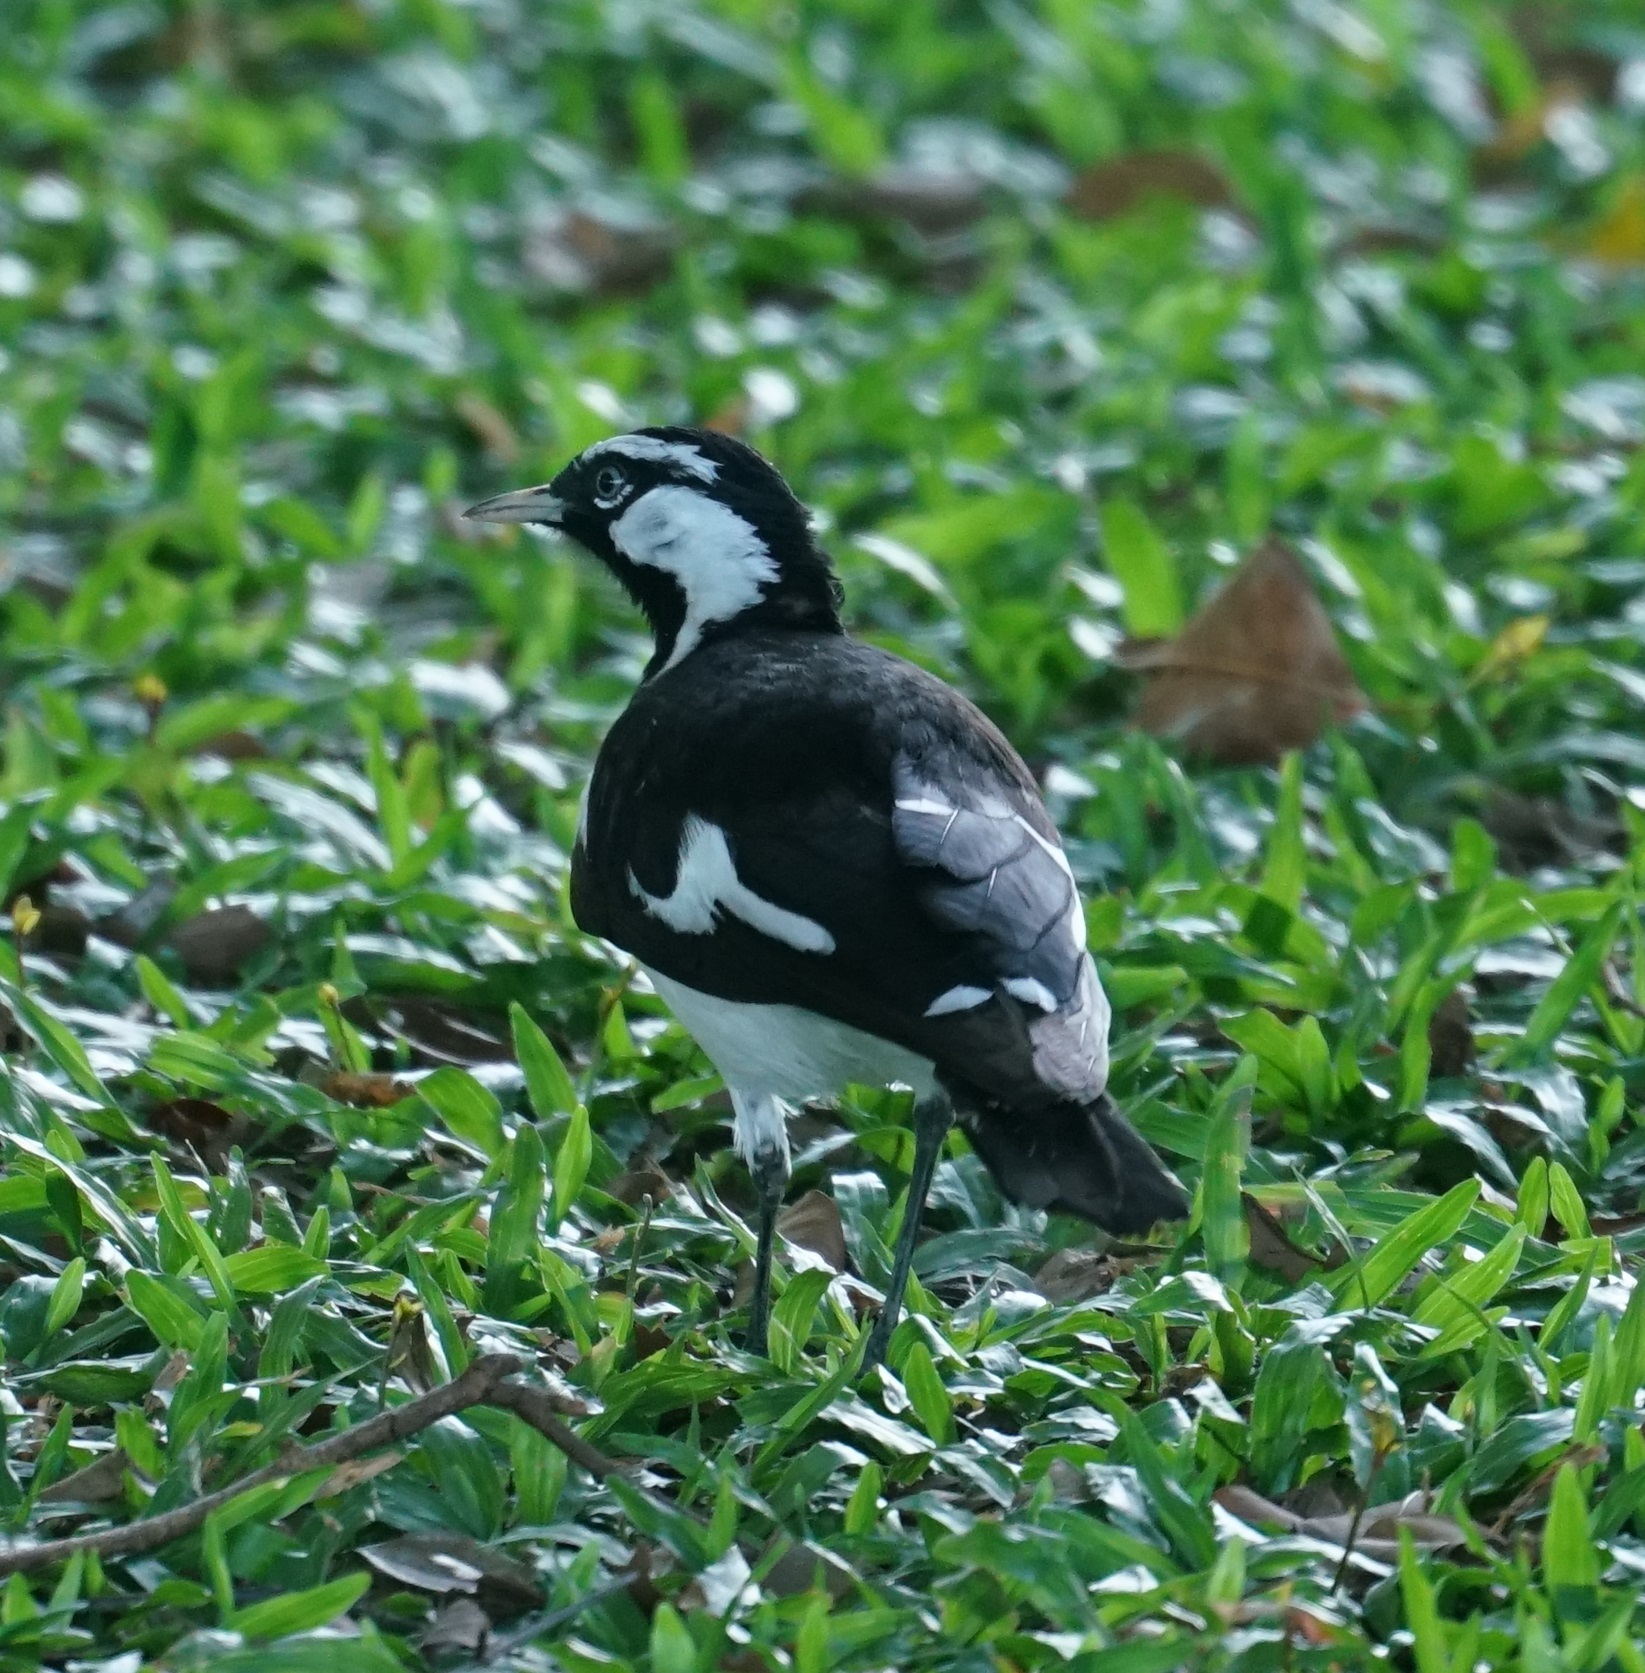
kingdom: Animalia
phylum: Chordata
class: Aves
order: Passeriformes
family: Monarchidae
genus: Grallina
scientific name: Grallina cyanoleuca
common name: Magpie-lark
